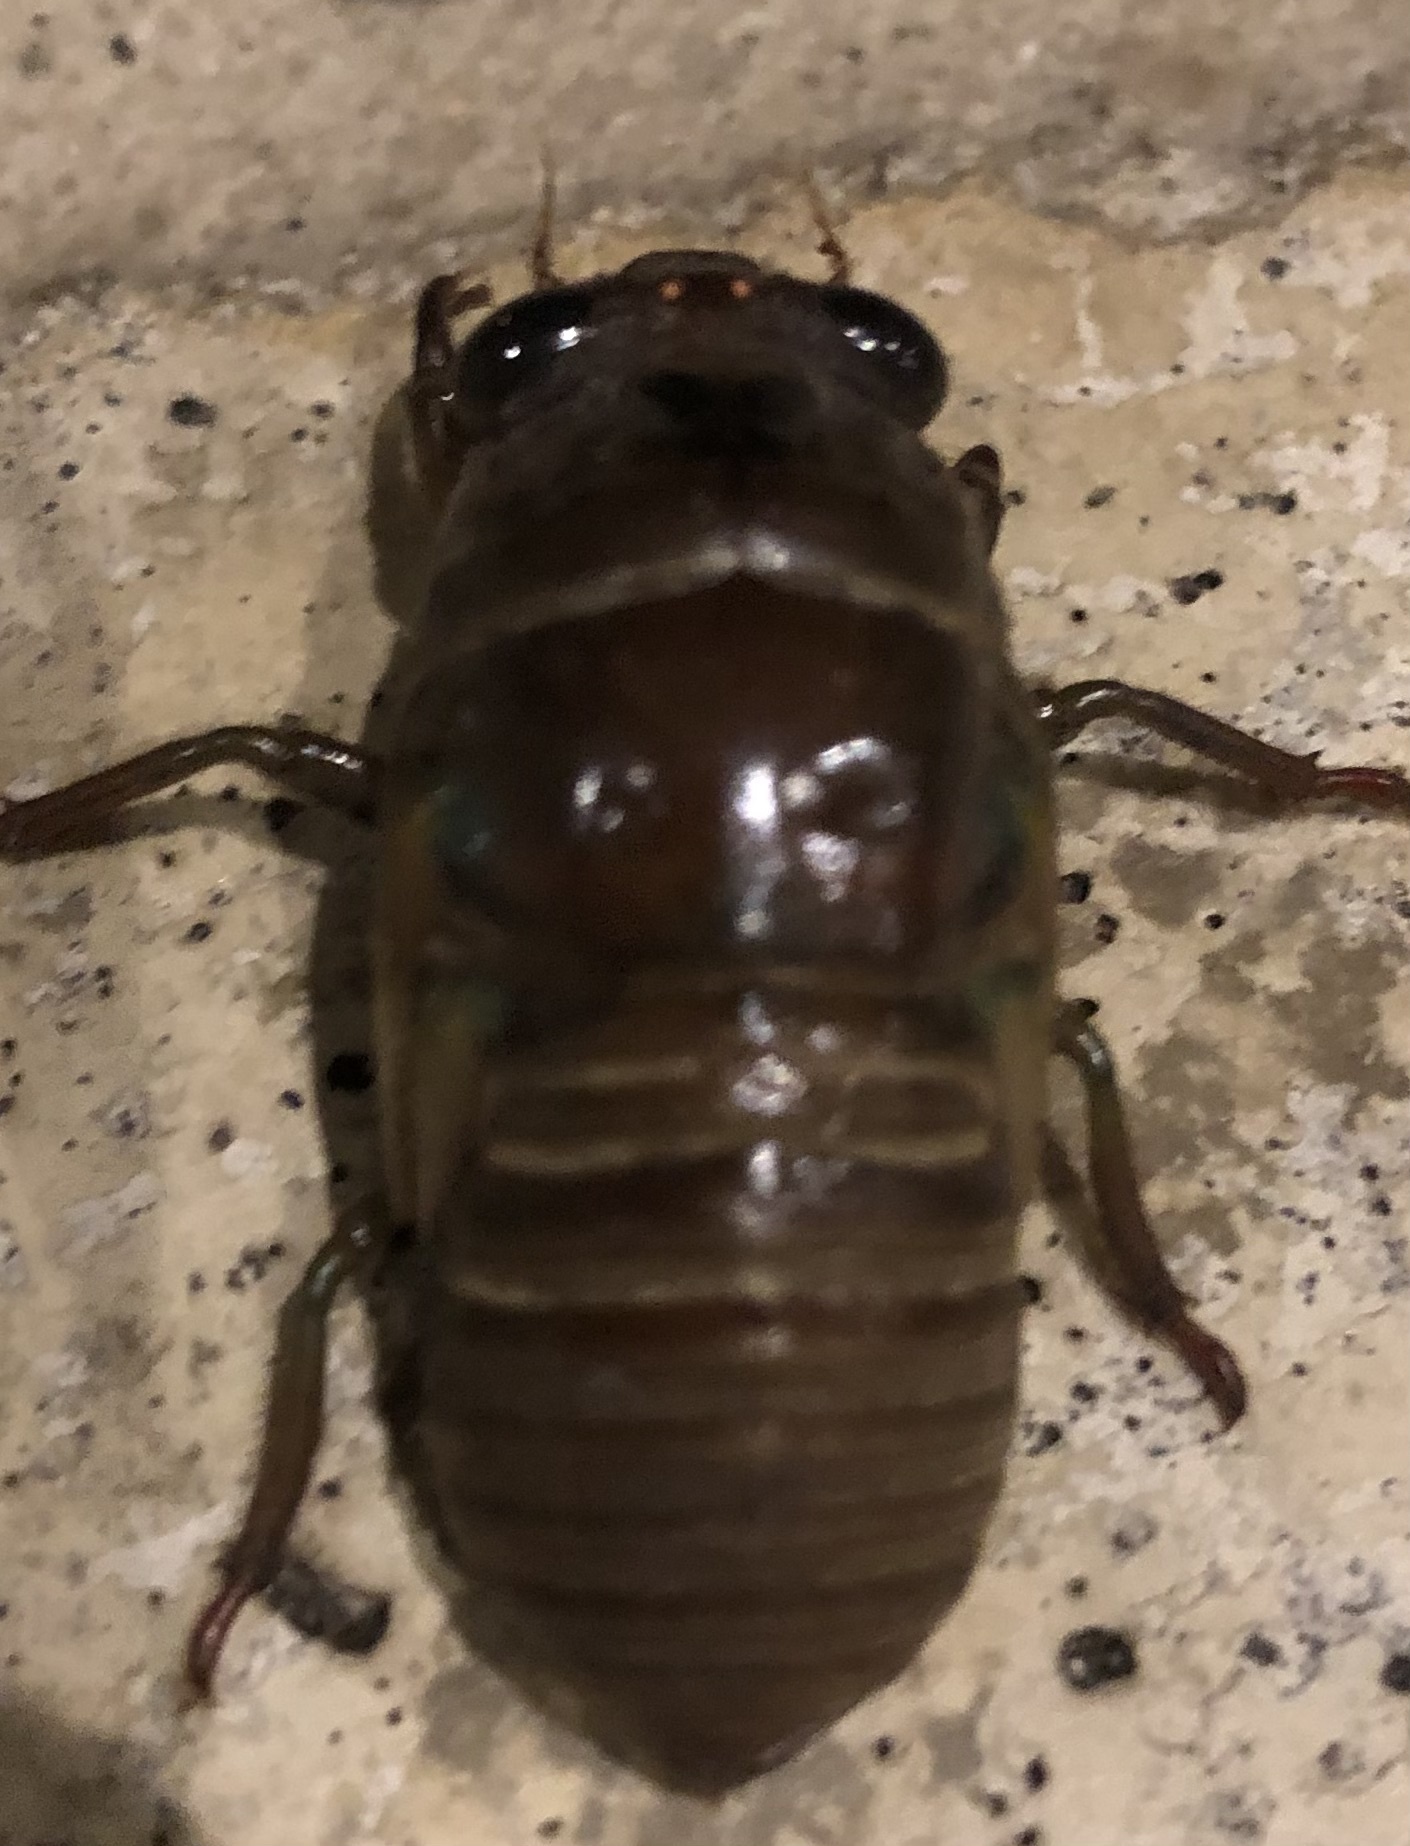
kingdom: Animalia
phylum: Arthropoda
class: Insecta
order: Hemiptera
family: Cicadidae
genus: Neotibicen
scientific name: Neotibicen lyricen
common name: Lyric cicada
